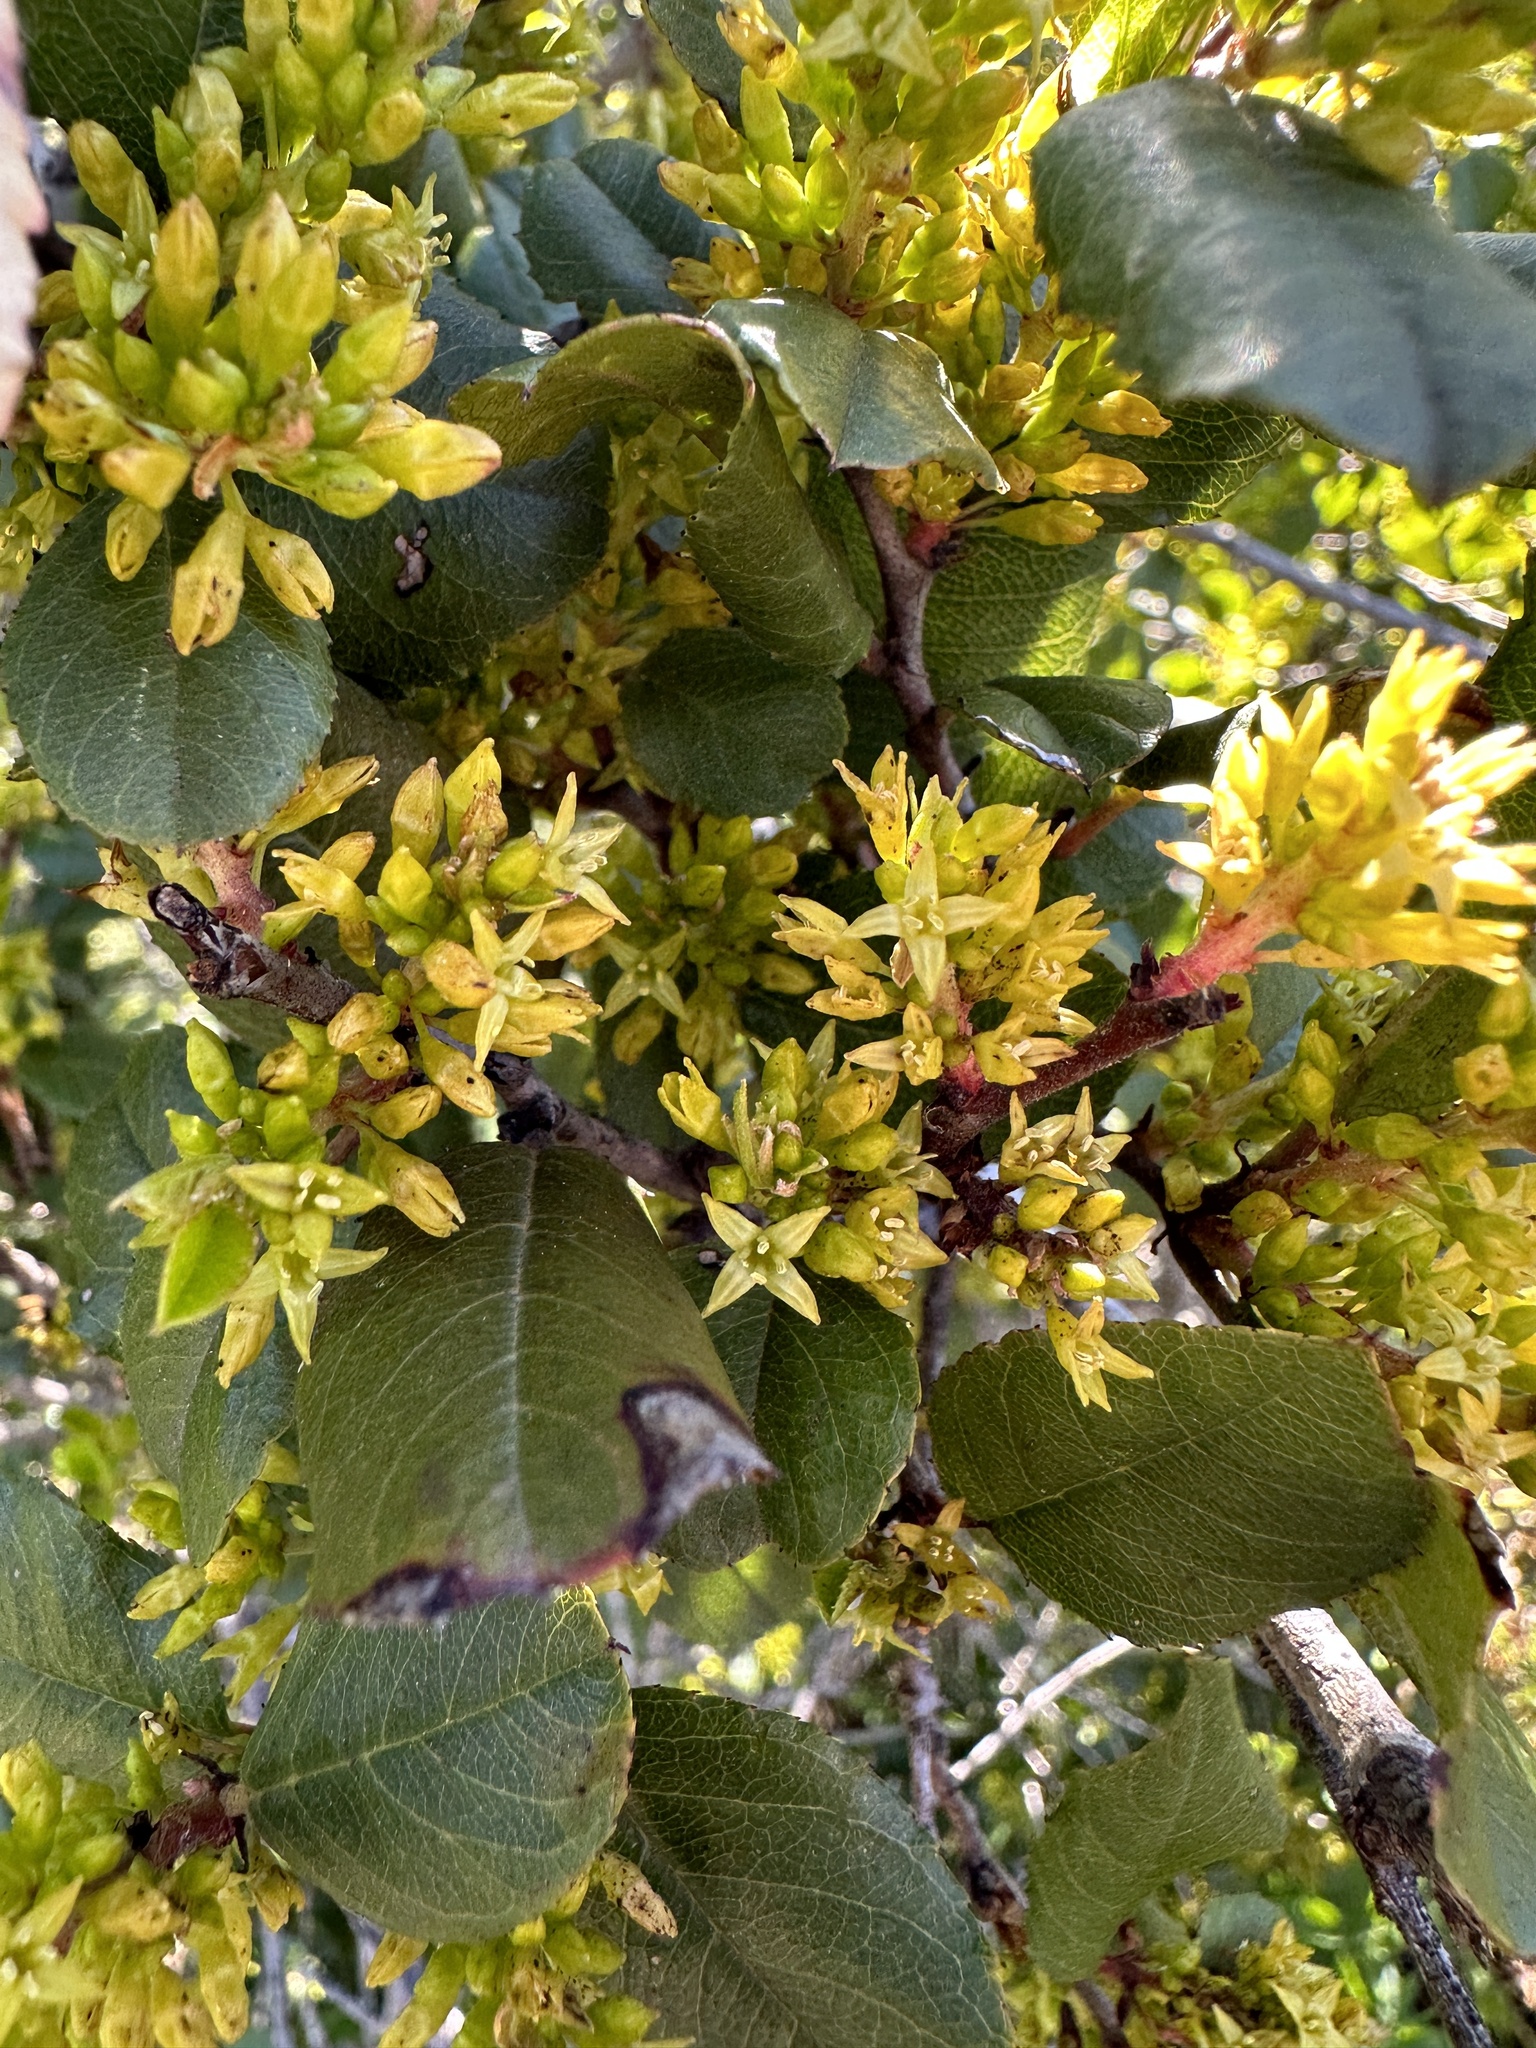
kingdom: Plantae
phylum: Tracheophyta
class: Magnoliopsida
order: Rosales
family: Rhamnaceae
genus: Endotropis
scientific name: Endotropis crocea
